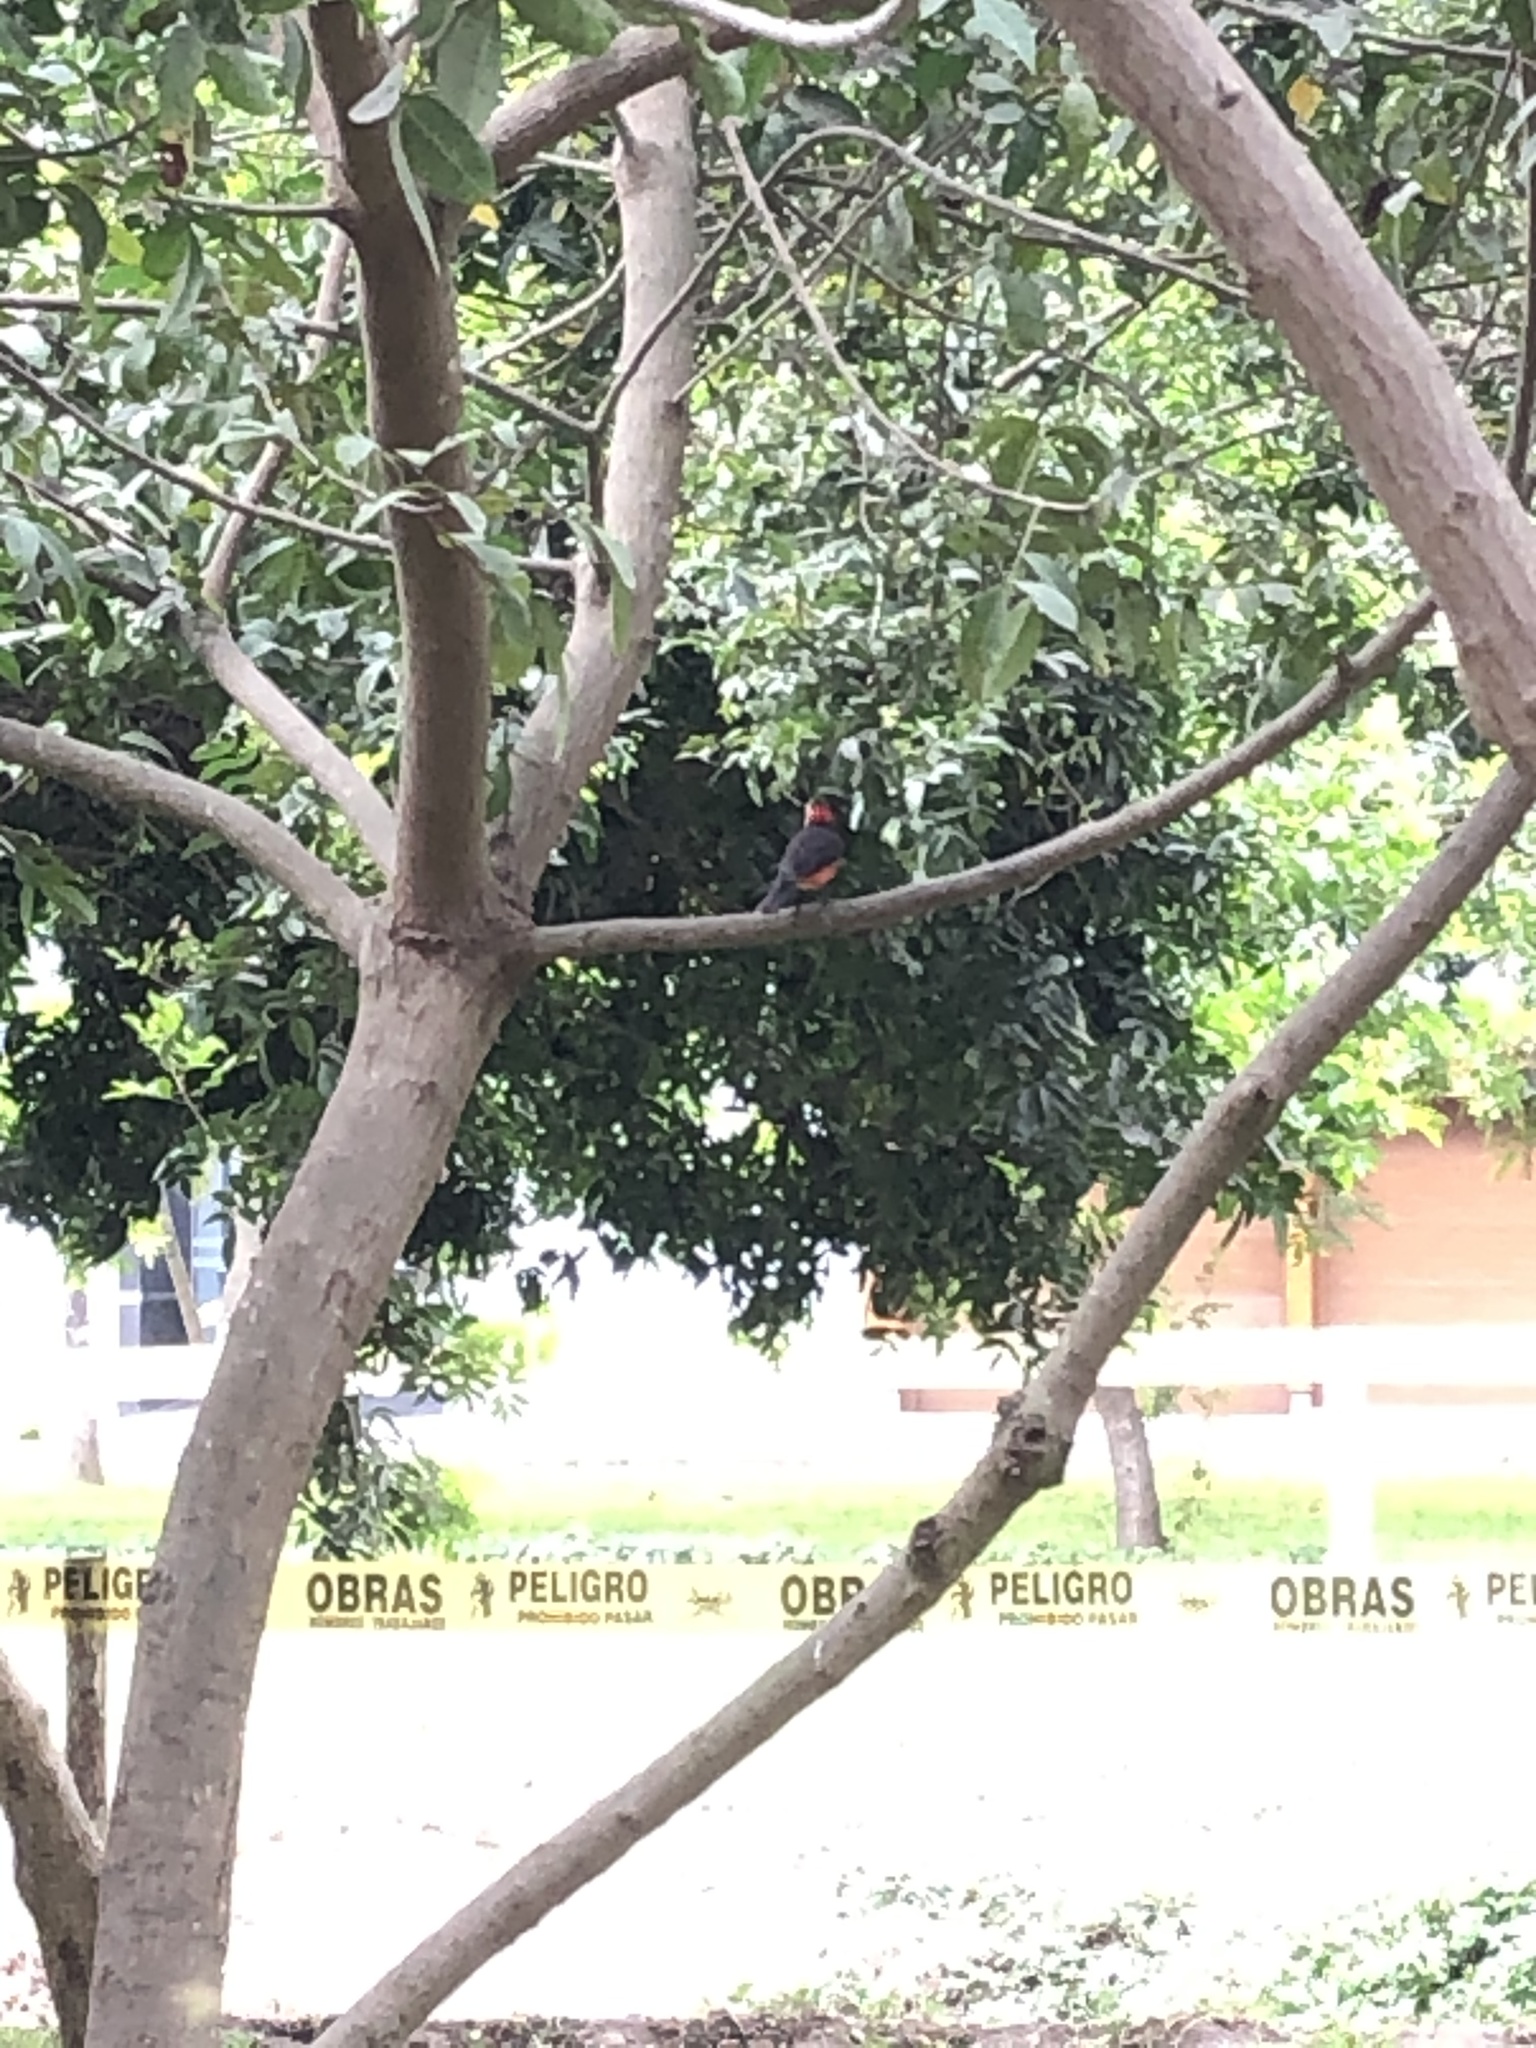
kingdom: Animalia
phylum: Chordata
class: Aves
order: Passeriformes
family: Tyrannidae
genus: Pyrocephalus
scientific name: Pyrocephalus rubinus
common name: Vermilion flycatcher
